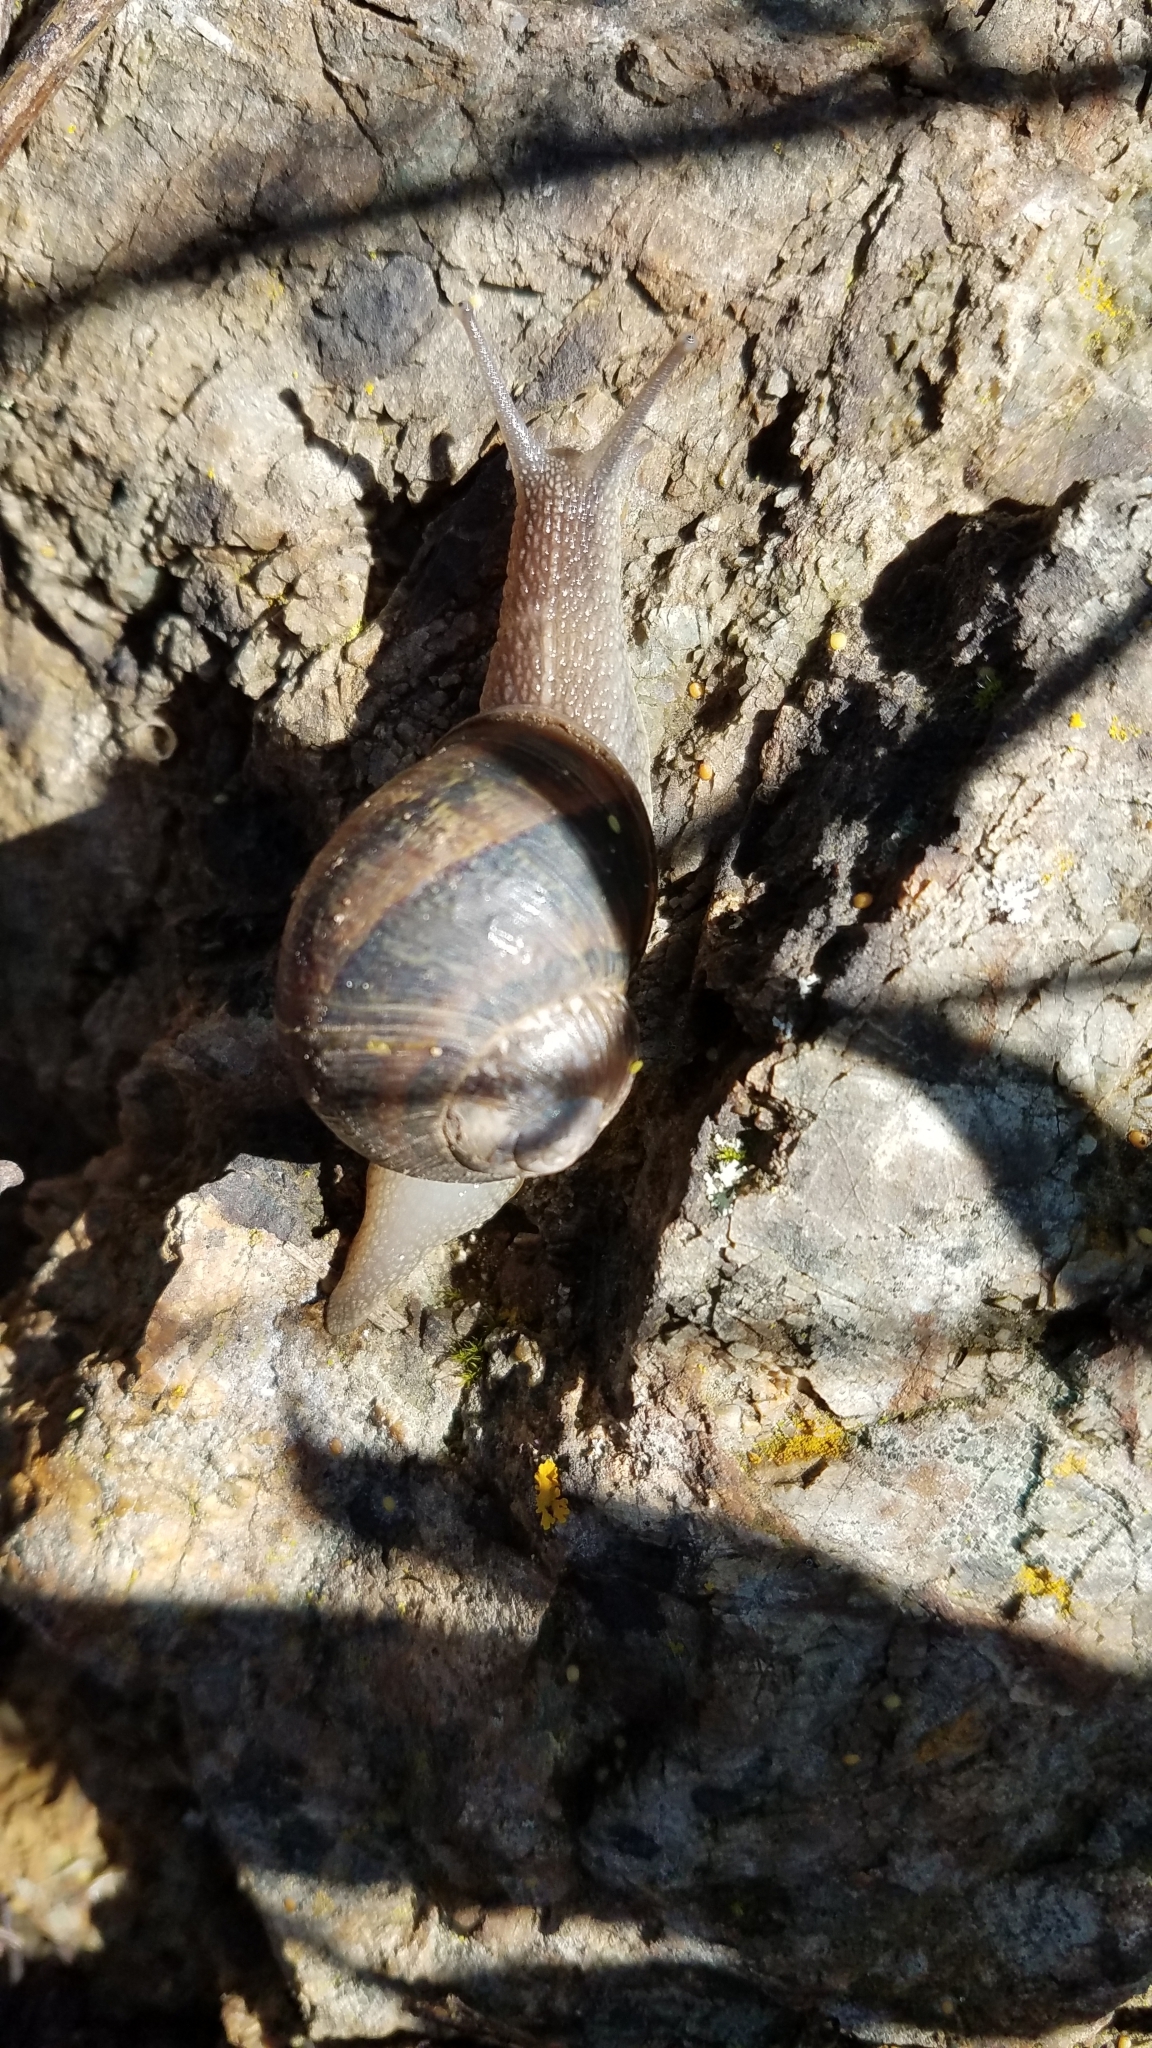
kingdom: Animalia
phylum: Mollusca
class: Gastropoda
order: Stylommatophora
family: Helicidae
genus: Cornu
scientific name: Cornu aspersum
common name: Brown garden snail
